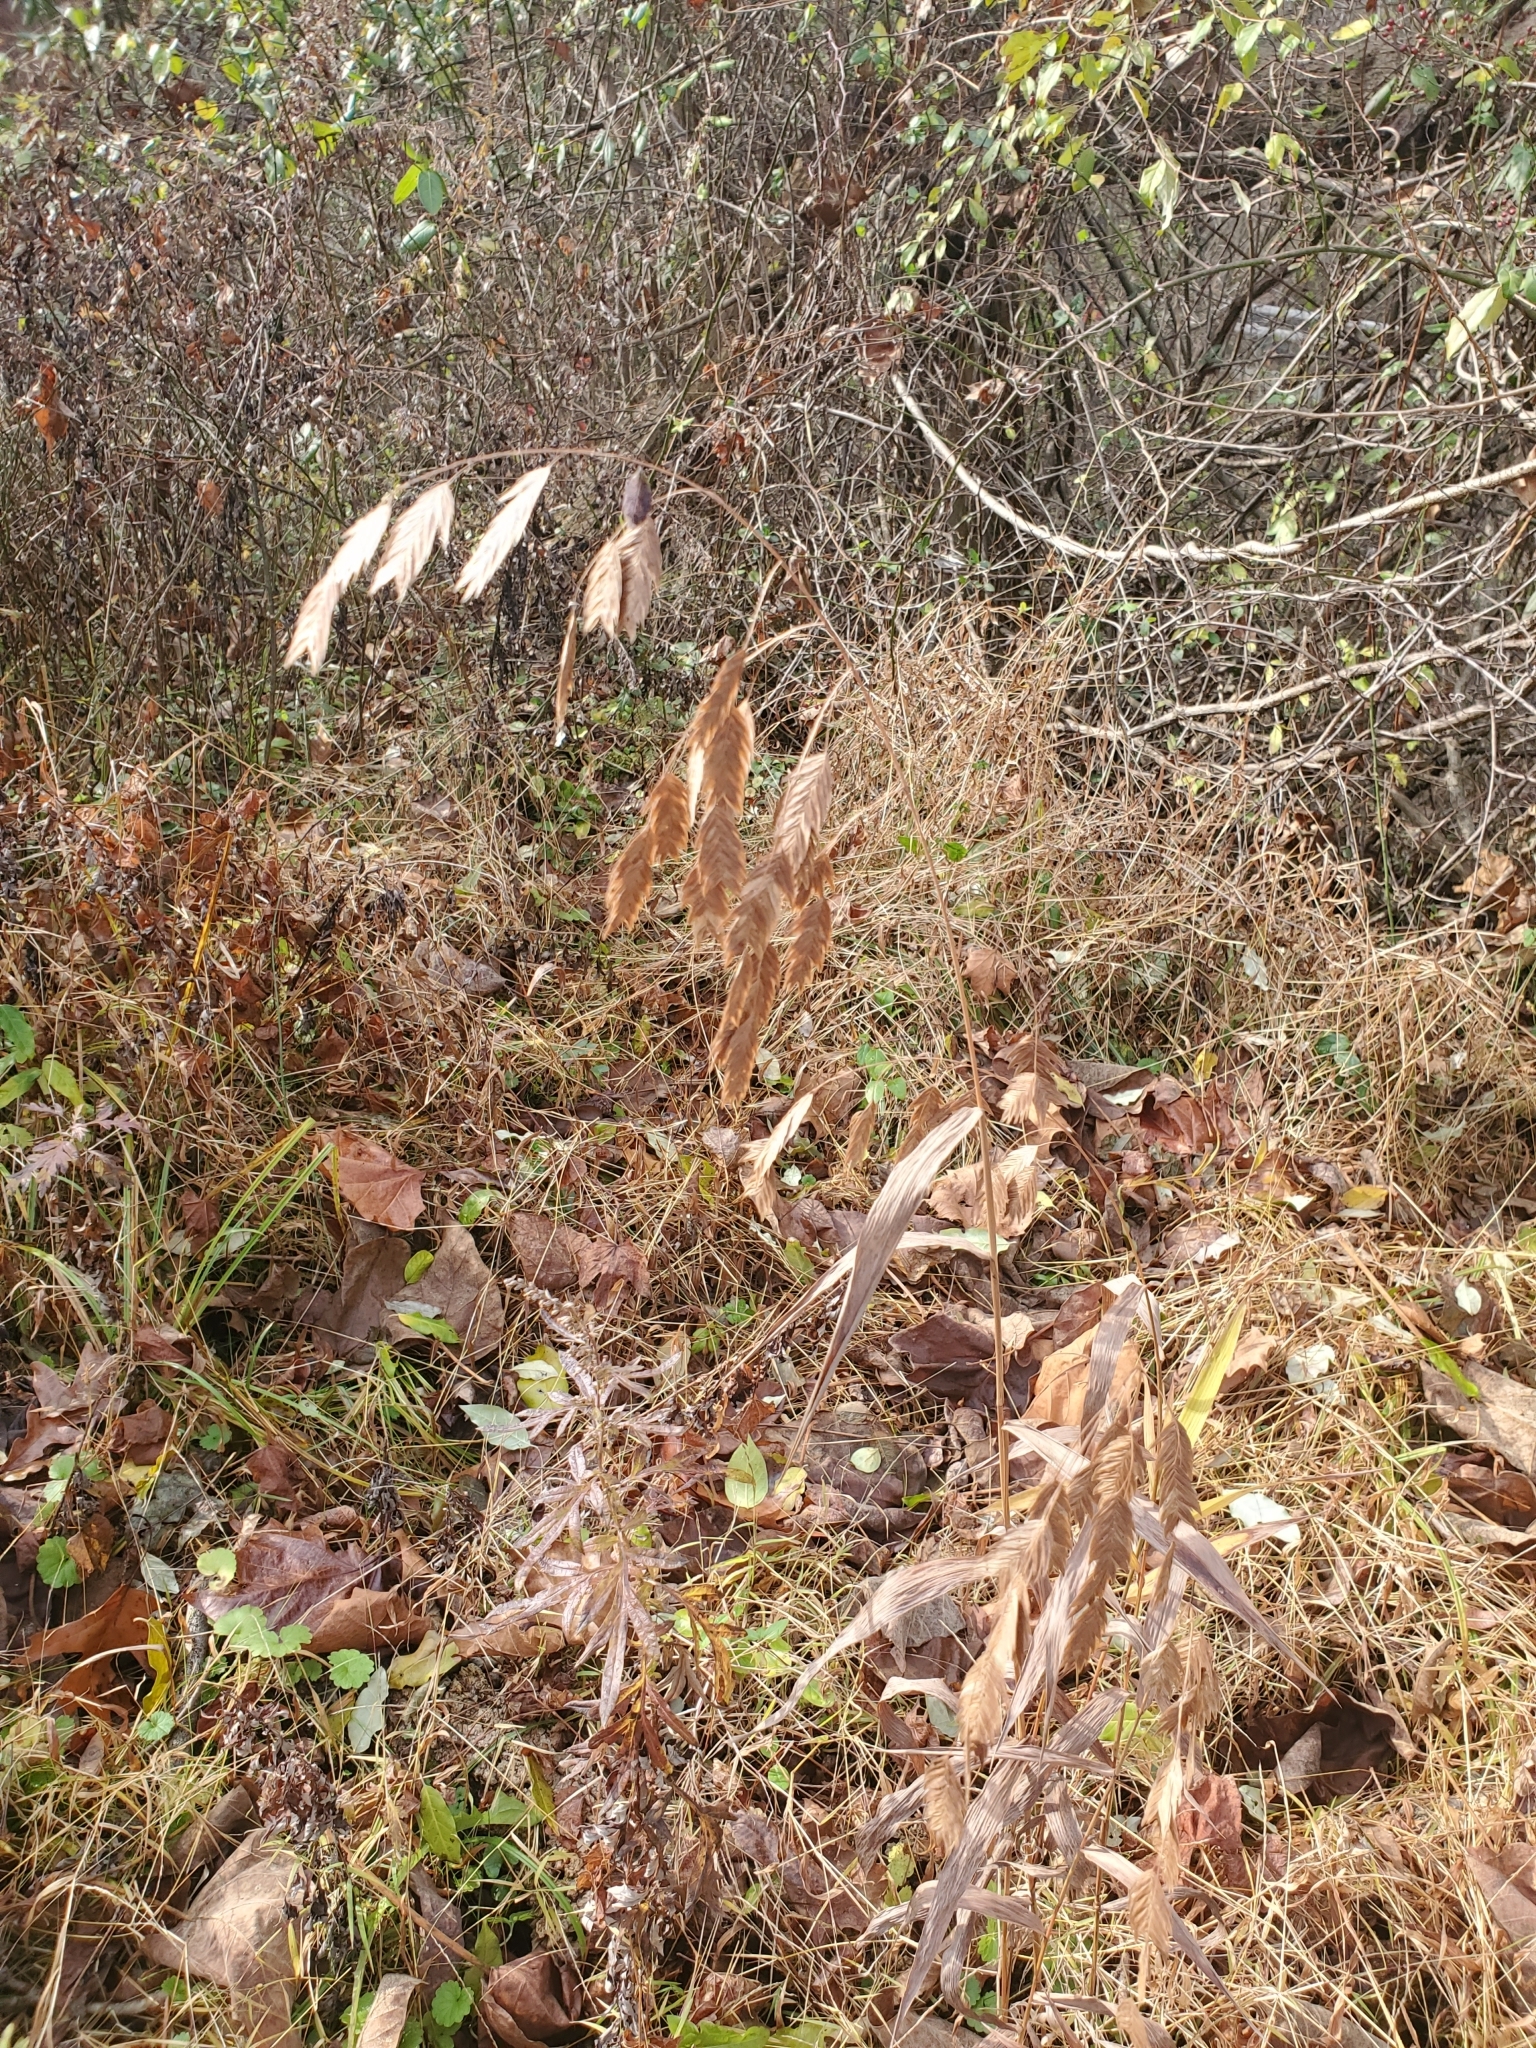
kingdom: Plantae
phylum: Tracheophyta
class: Liliopsida
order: Poales
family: Poaceae
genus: Chasmanthium
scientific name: Chasmanthium latifolium
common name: Broad-leaved chasmanthium
